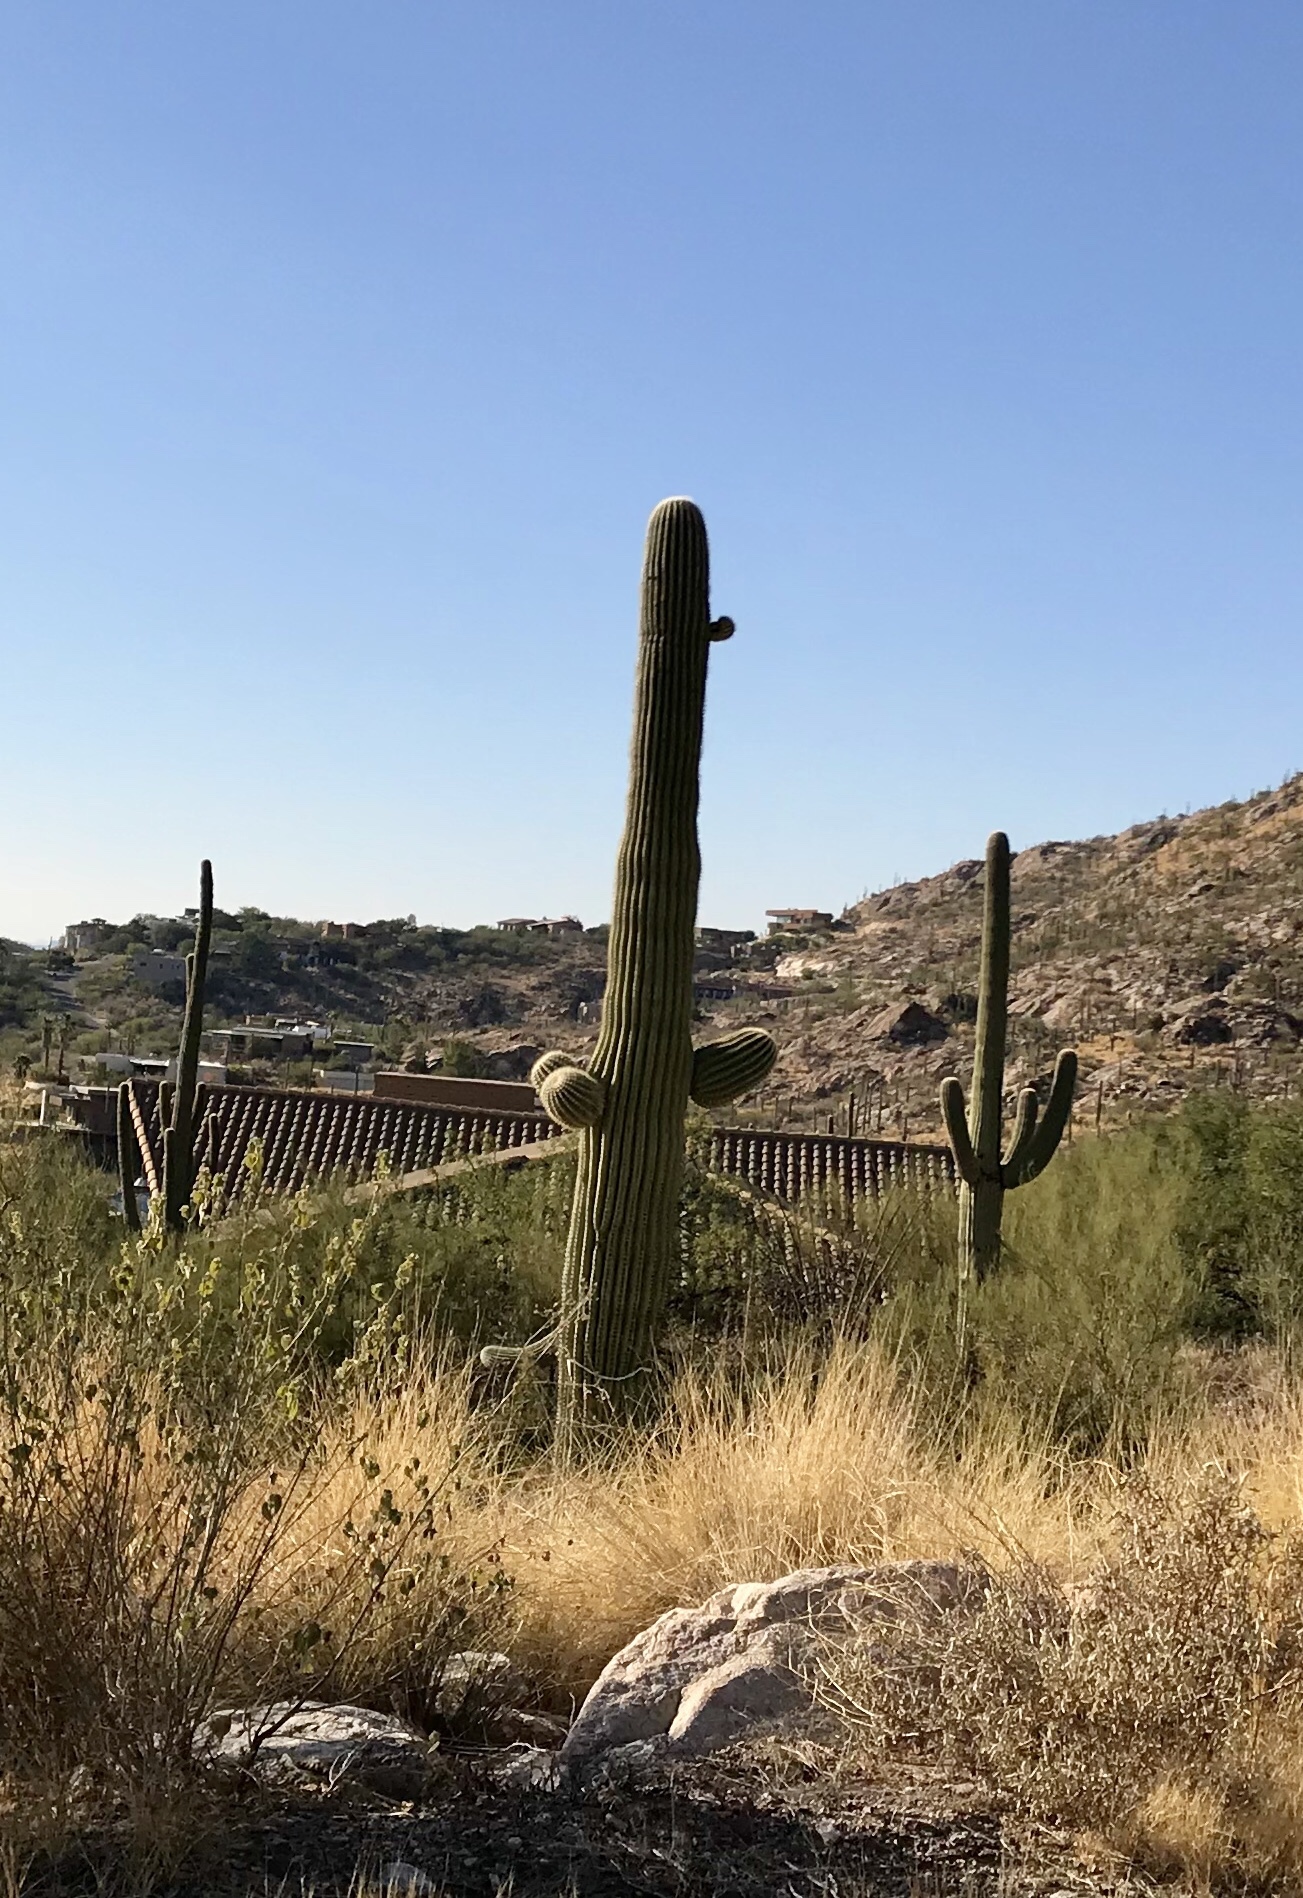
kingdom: Plantae
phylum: Tracheophyta
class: Magnoliopsida
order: Caryophyllales
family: Cactaceae
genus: Carnegiea
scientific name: Carnegiea gigantea
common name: Saguaro
